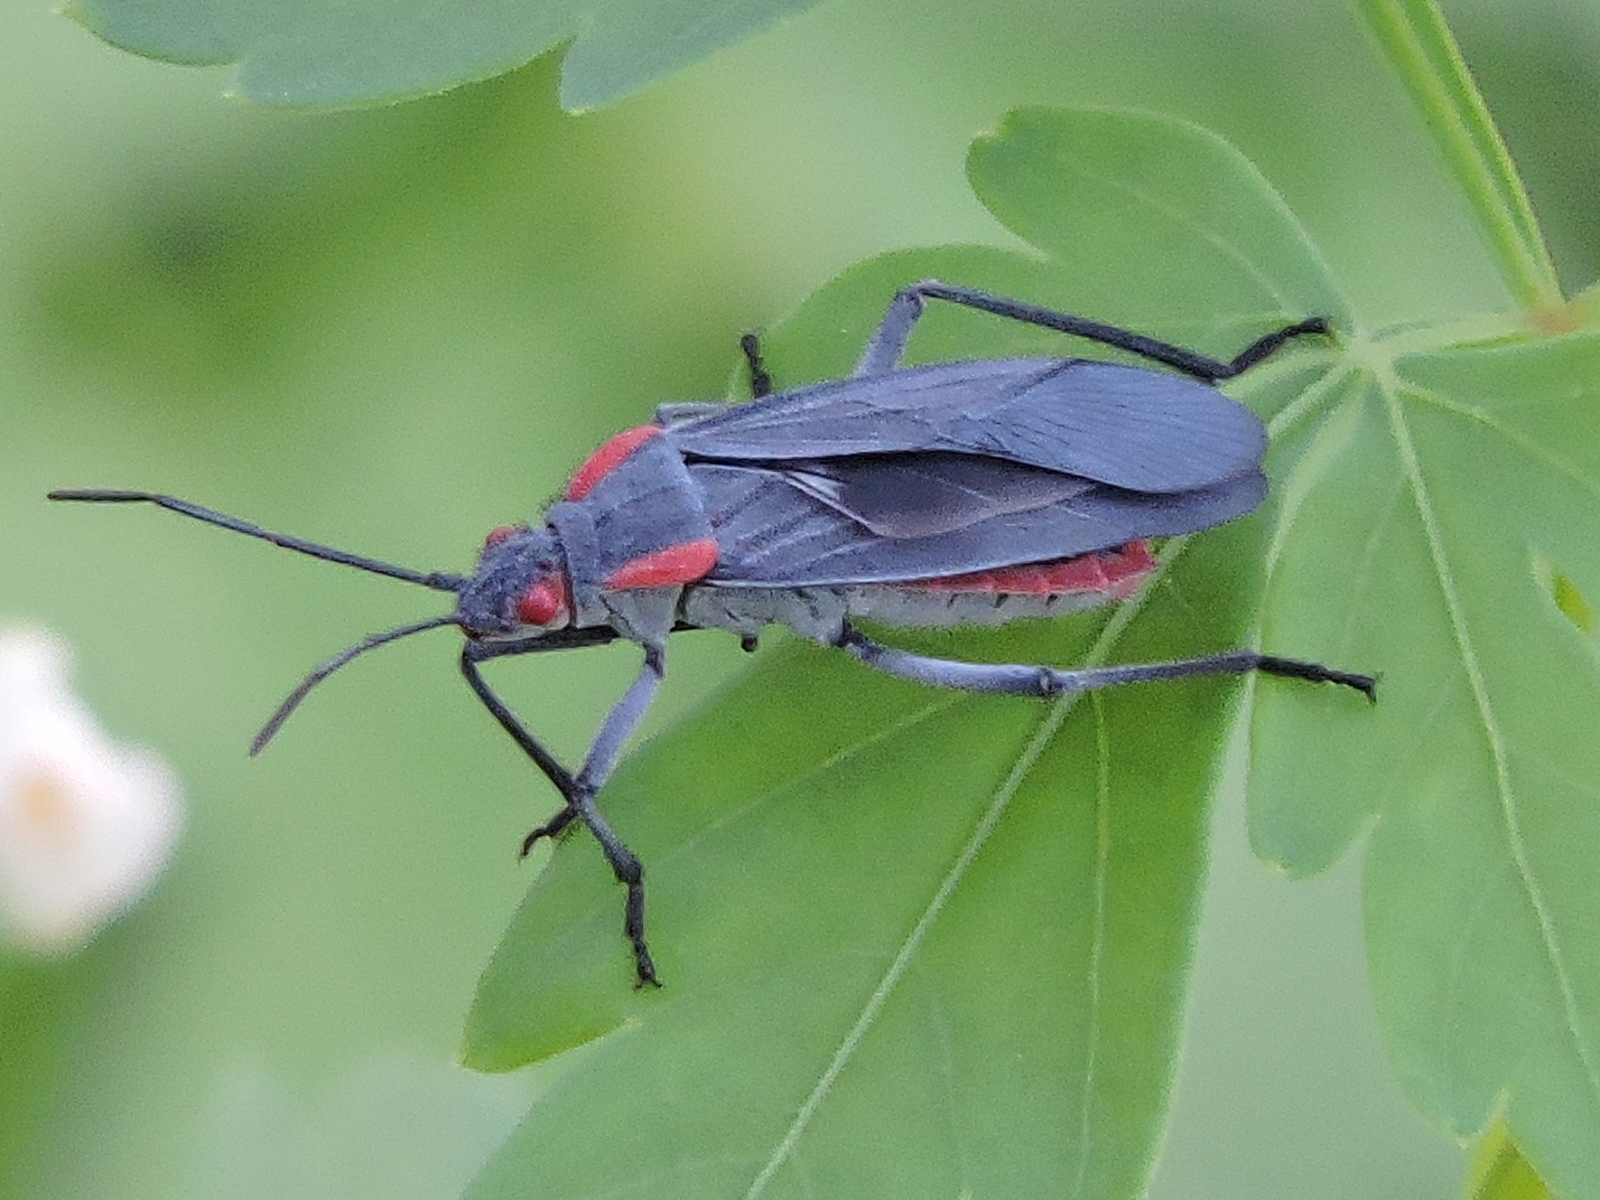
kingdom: Animalia
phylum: Arthropoda
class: Insecta
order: Hemiptera
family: Rhopalidae
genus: Jadera
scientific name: Jadera haematoloma
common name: Red-shouldered bug
